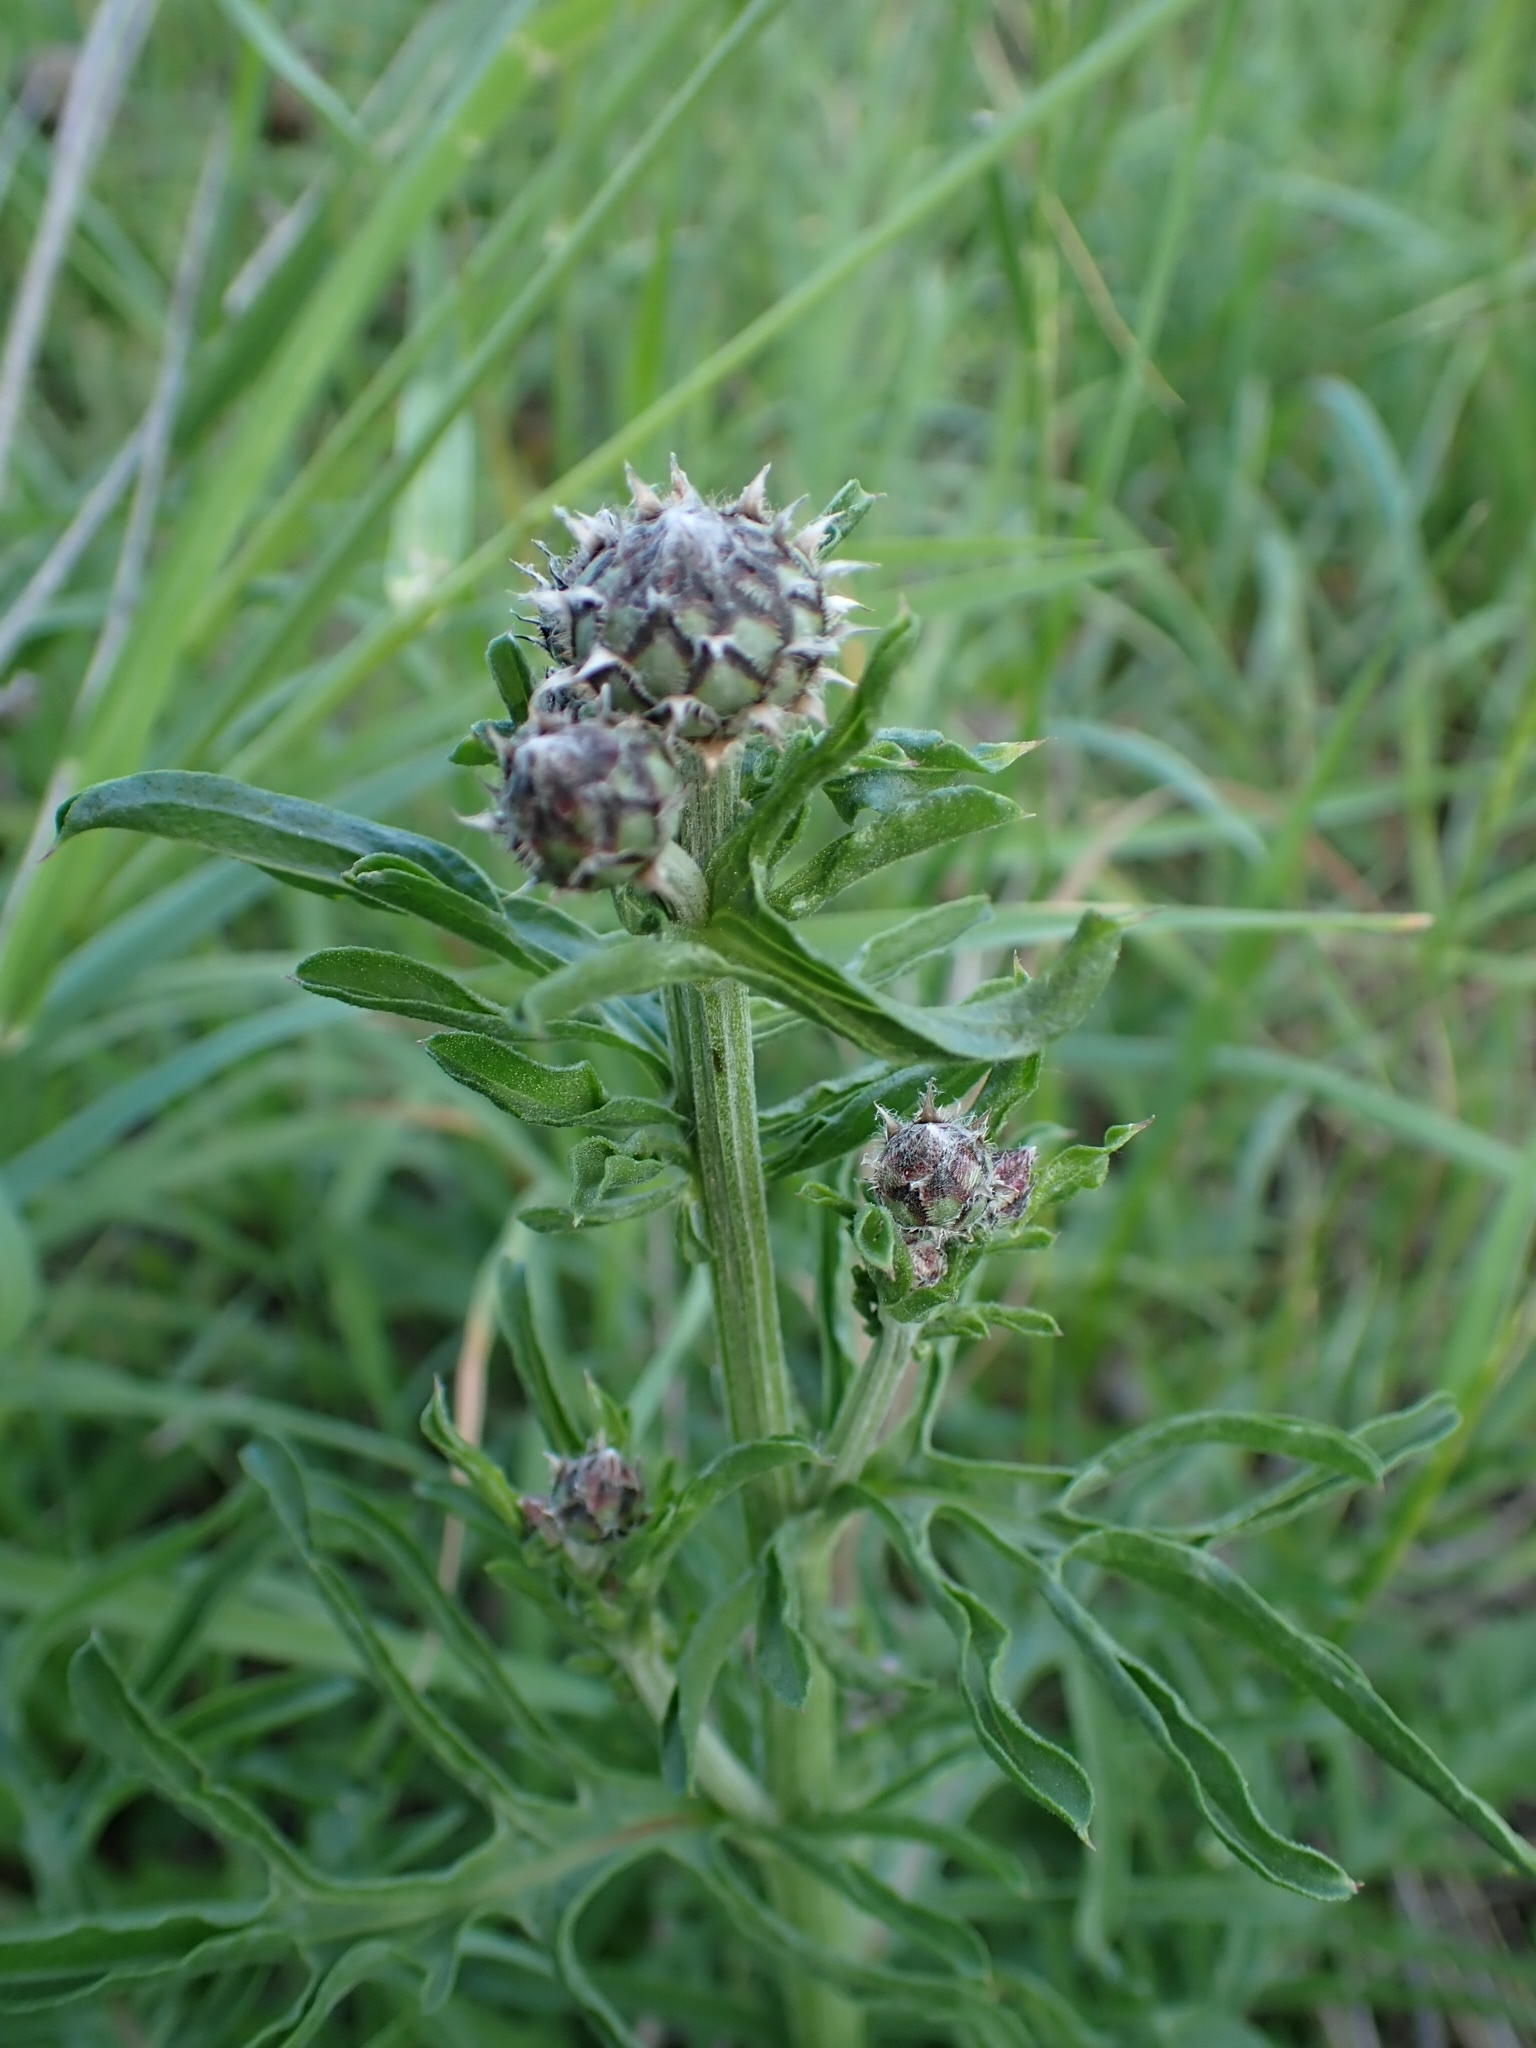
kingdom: Plantae
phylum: Tracheophyta
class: Magnoliopsida
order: Asterales
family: Asteraceae
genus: Centaurea
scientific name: Centaurea scabiosa
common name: Greater knapweed
